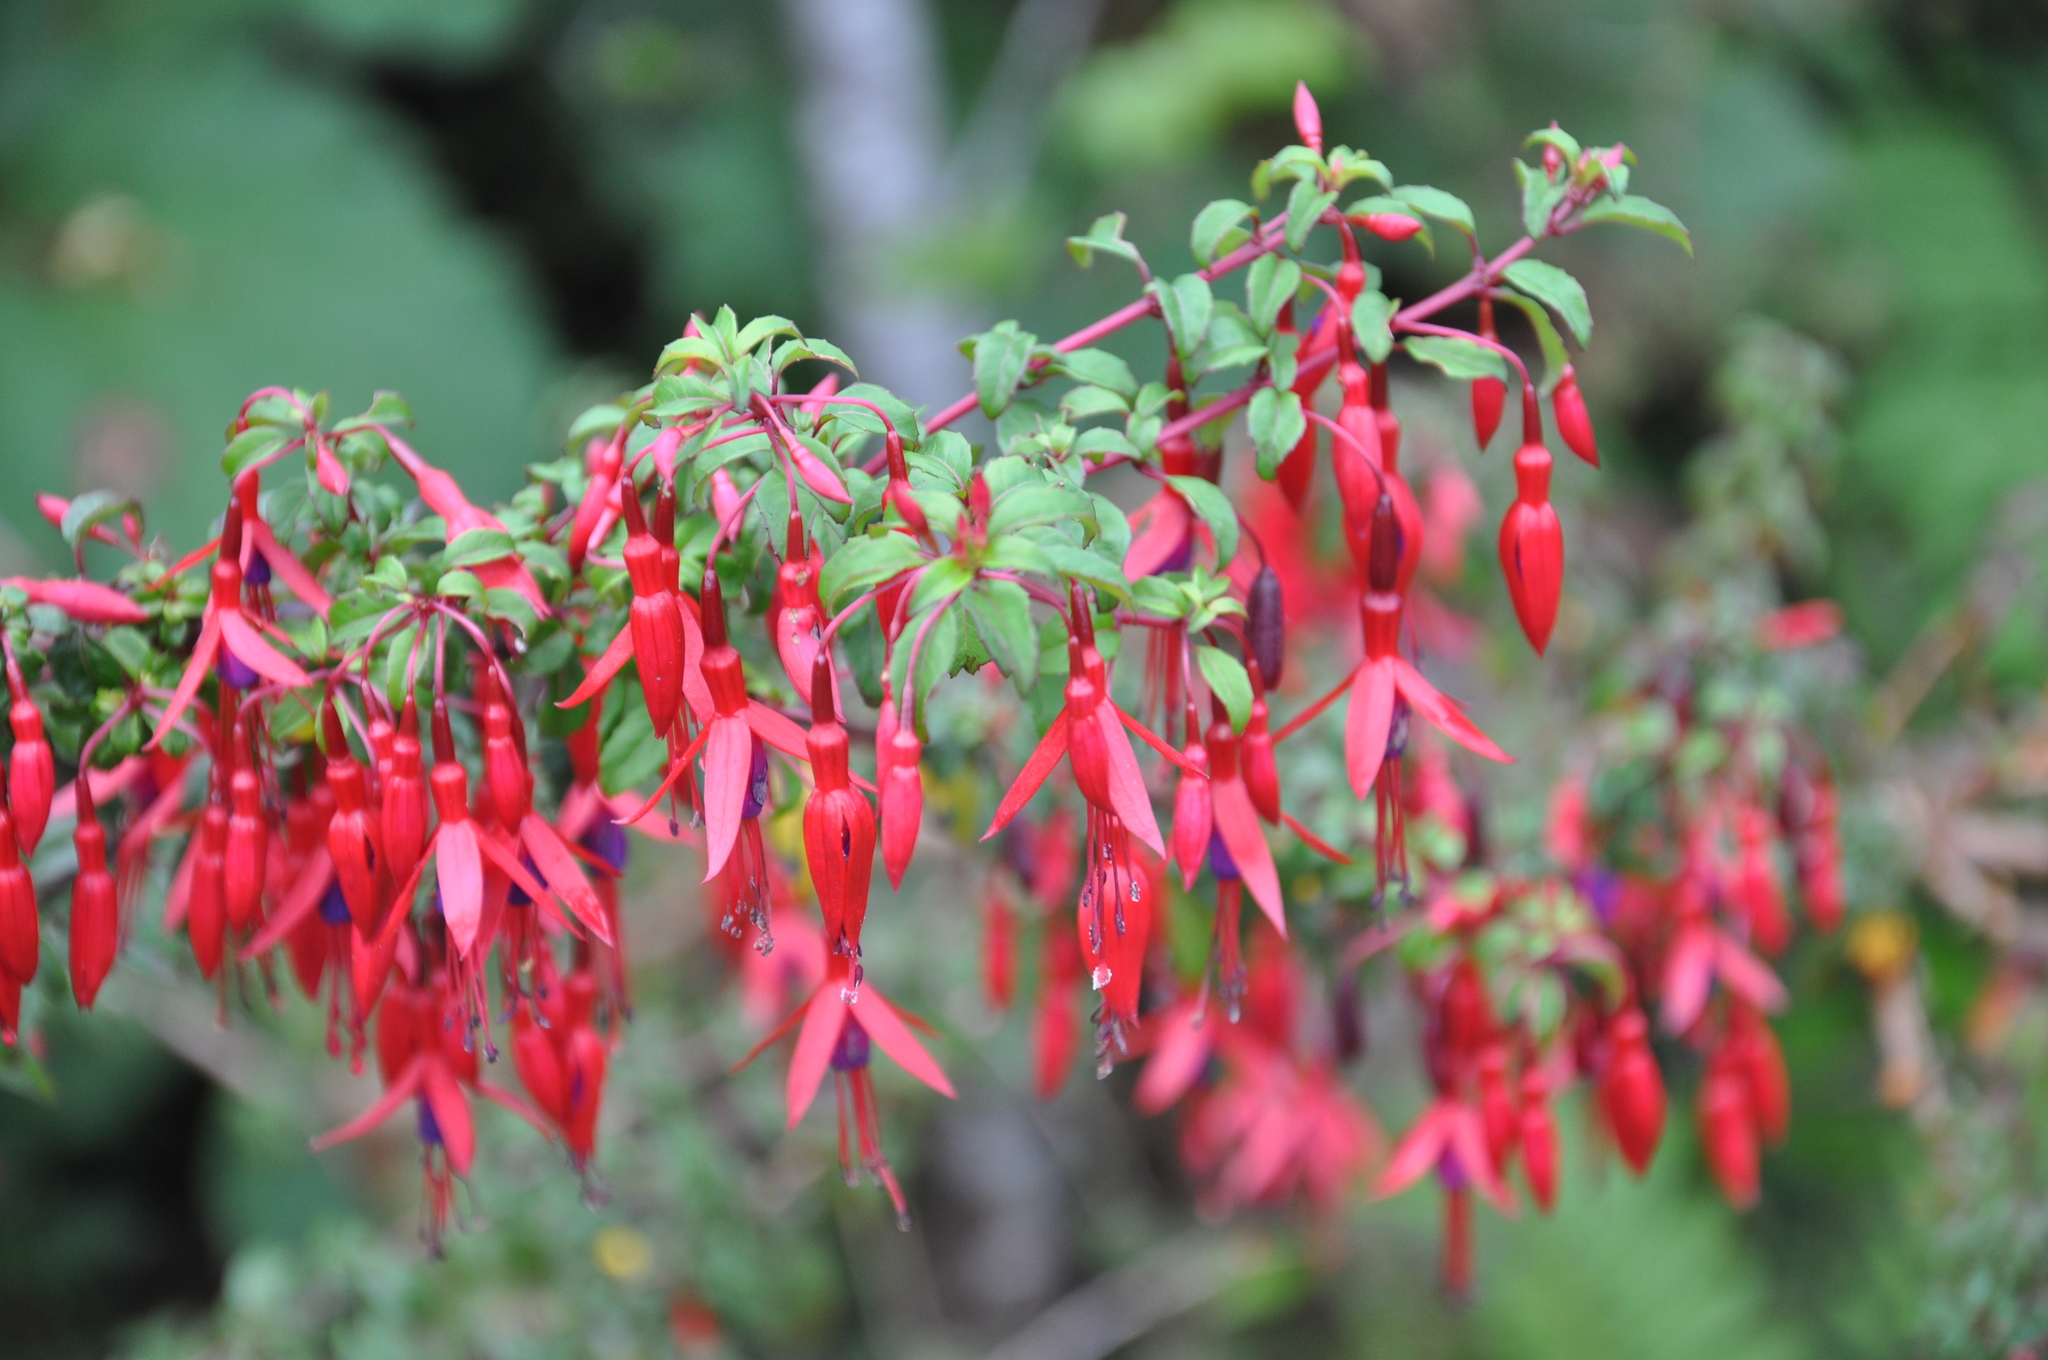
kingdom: Plantae
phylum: Tracheophyta
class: Magnoliopsida
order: Myrtales
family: Onagraceae
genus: Fuchsia
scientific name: Fuchsia magellanica
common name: Hardy fuchsia
